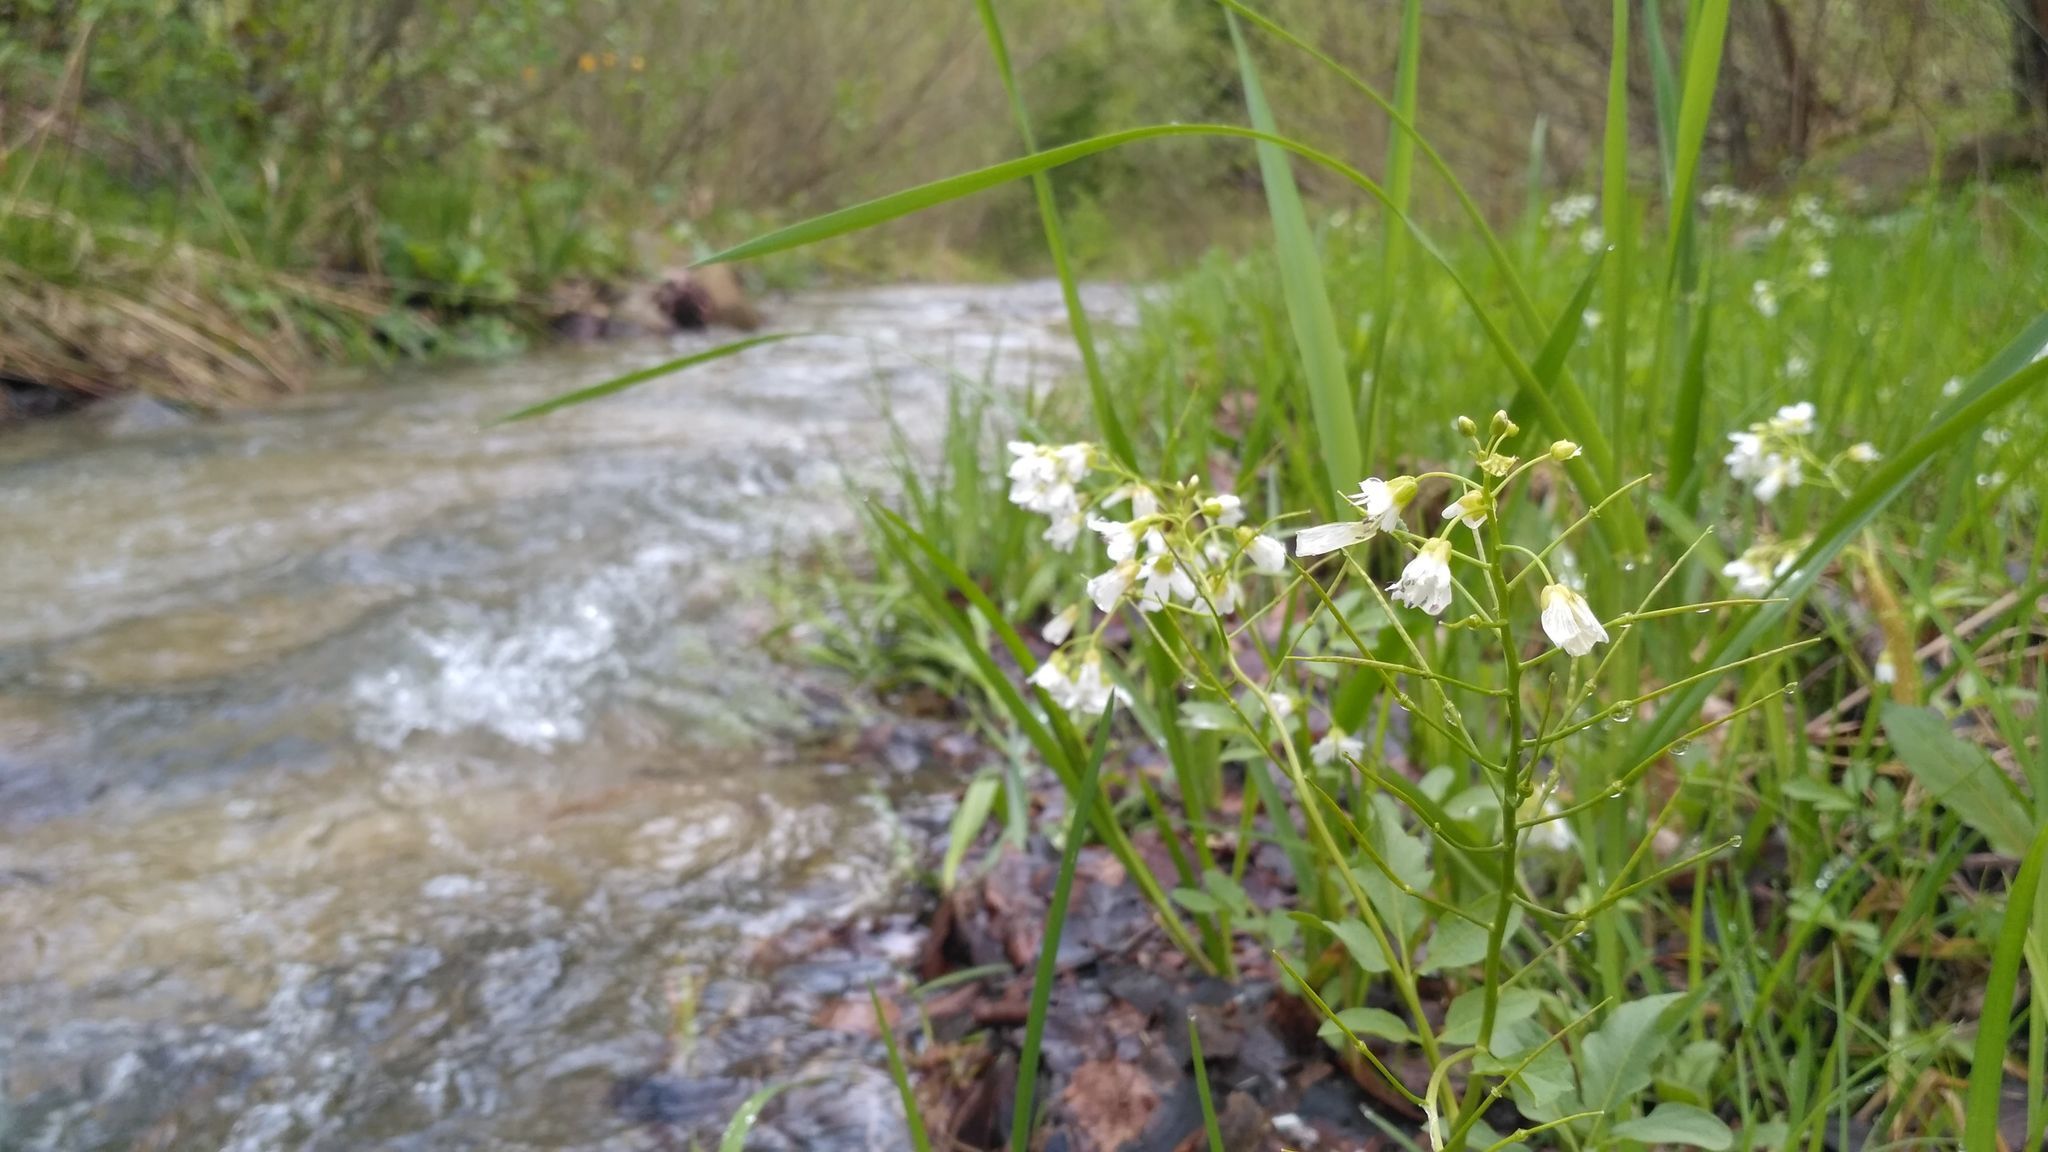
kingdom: Plantae
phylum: Tracheophyta
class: Magnoliopsida
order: Brassicales
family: Brassicaceae
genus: Cardamine
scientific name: Cardamine amara
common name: Large bitter-cress
